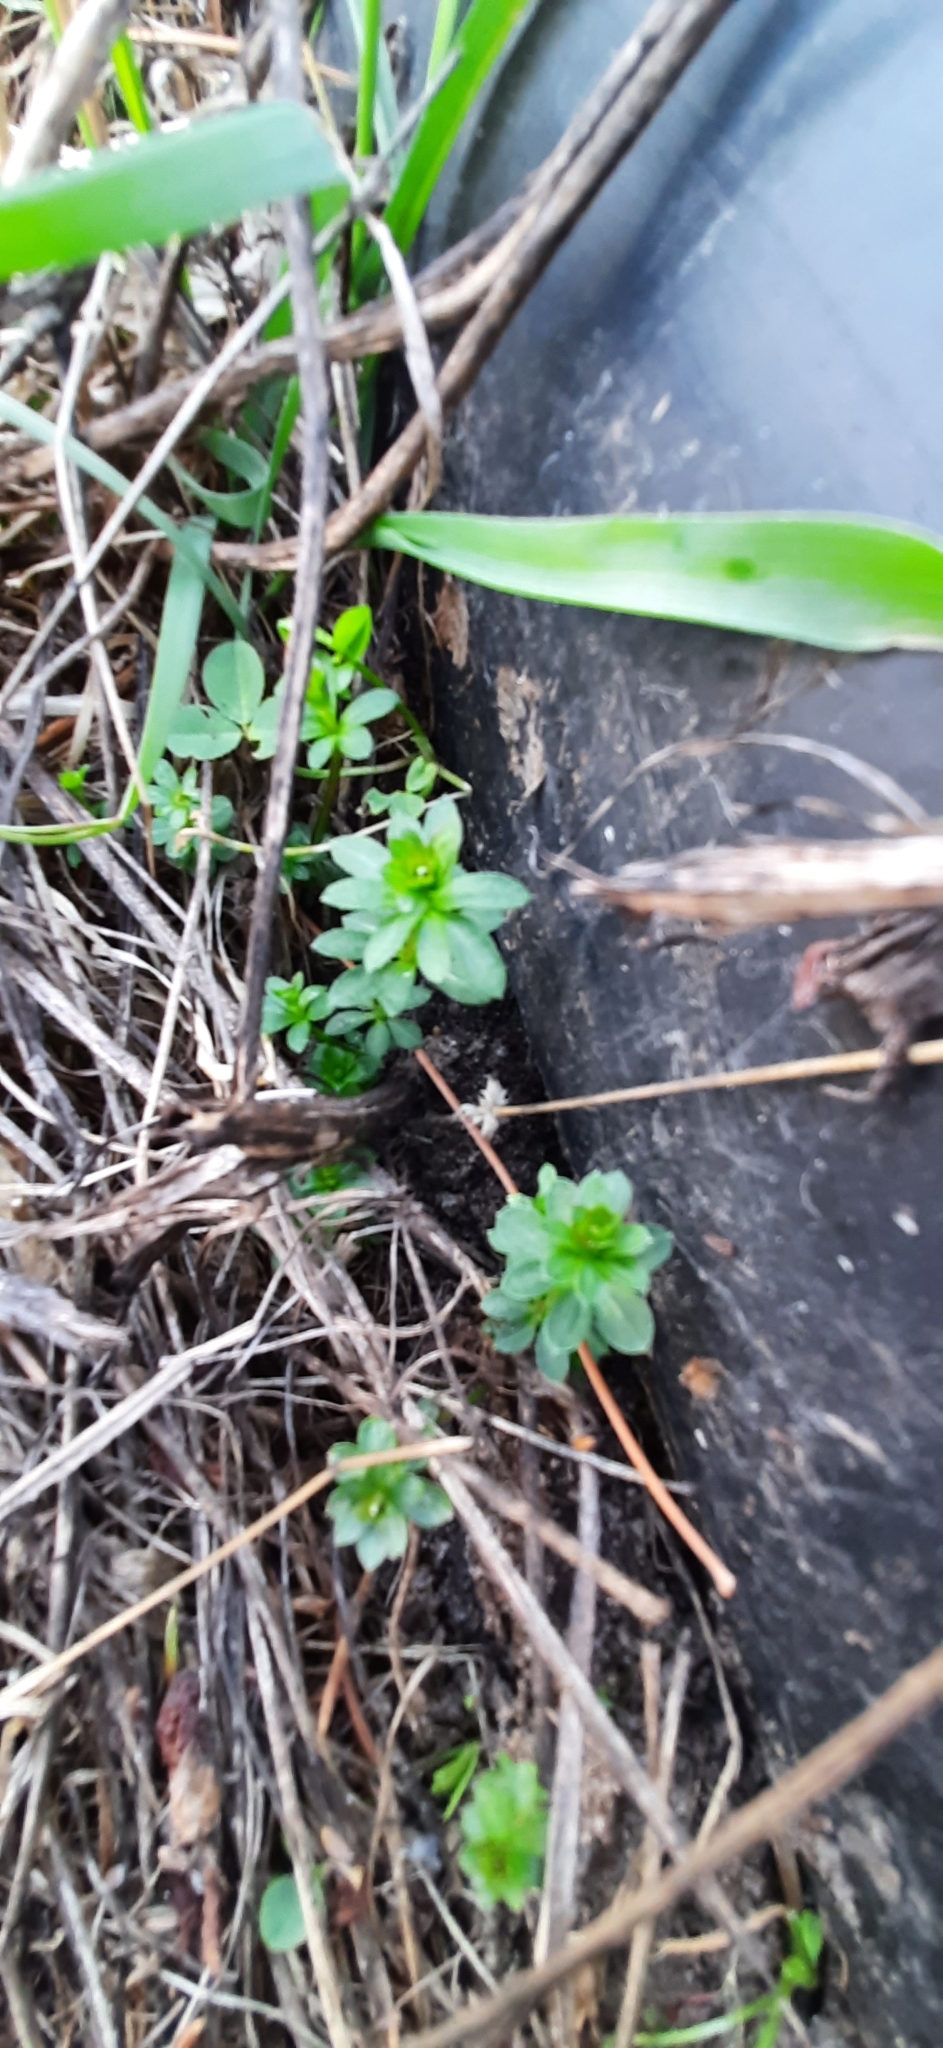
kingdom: Plantae
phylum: Tracheophyta
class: Magnoliopsida
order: Gentianales
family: Rubiaceae
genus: Galium
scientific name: Galium mollugo
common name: Hedge bedstraw
